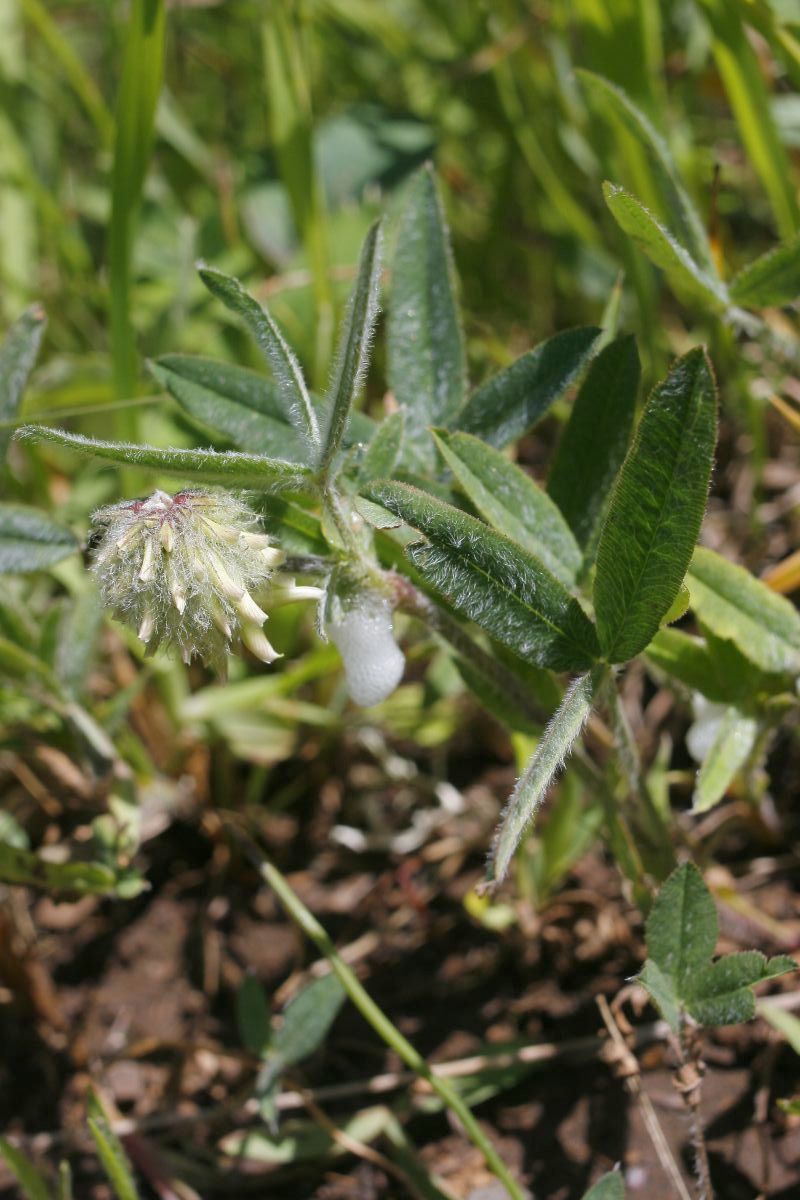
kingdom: Plantae
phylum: Tracheophyta
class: Magnoliopsida
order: Fabales
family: Fabaceae
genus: Trifolium
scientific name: Trifolium eriocephalum
